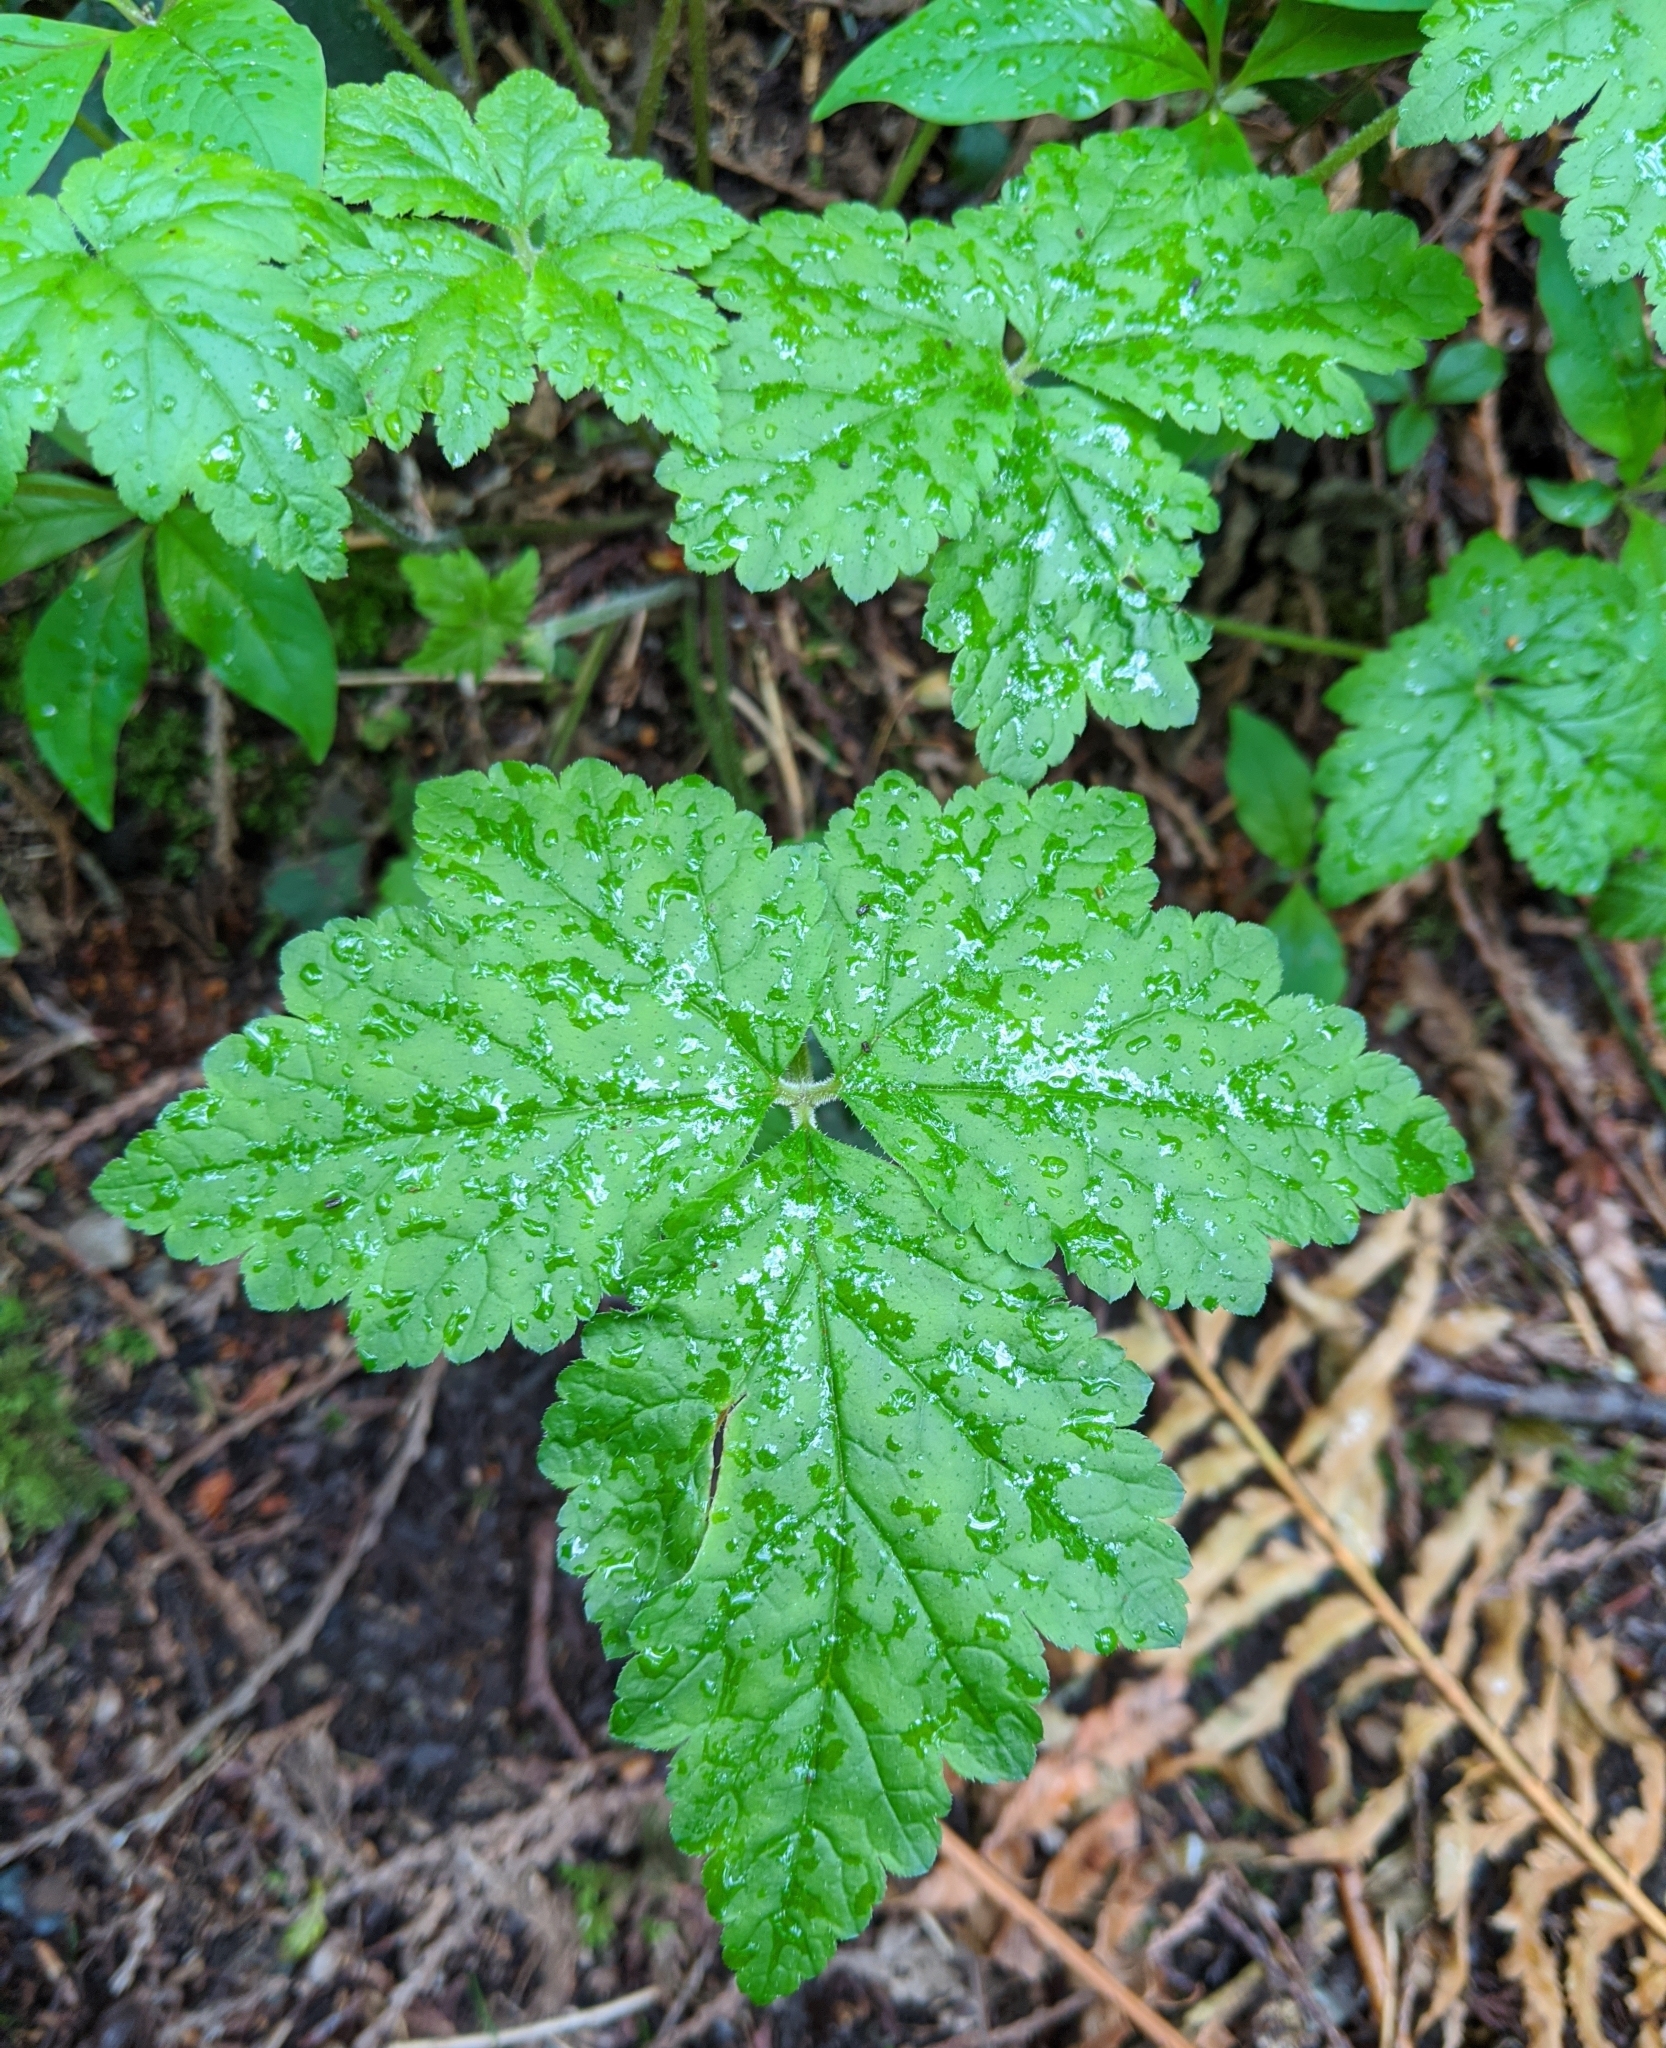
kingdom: Plantae
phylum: Tracheophyta
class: Magnoliopsida
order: Saxifragales
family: Saxifragaceae
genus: Tiarella
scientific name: Tiarella trifoliata
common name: Sugar-scoop
